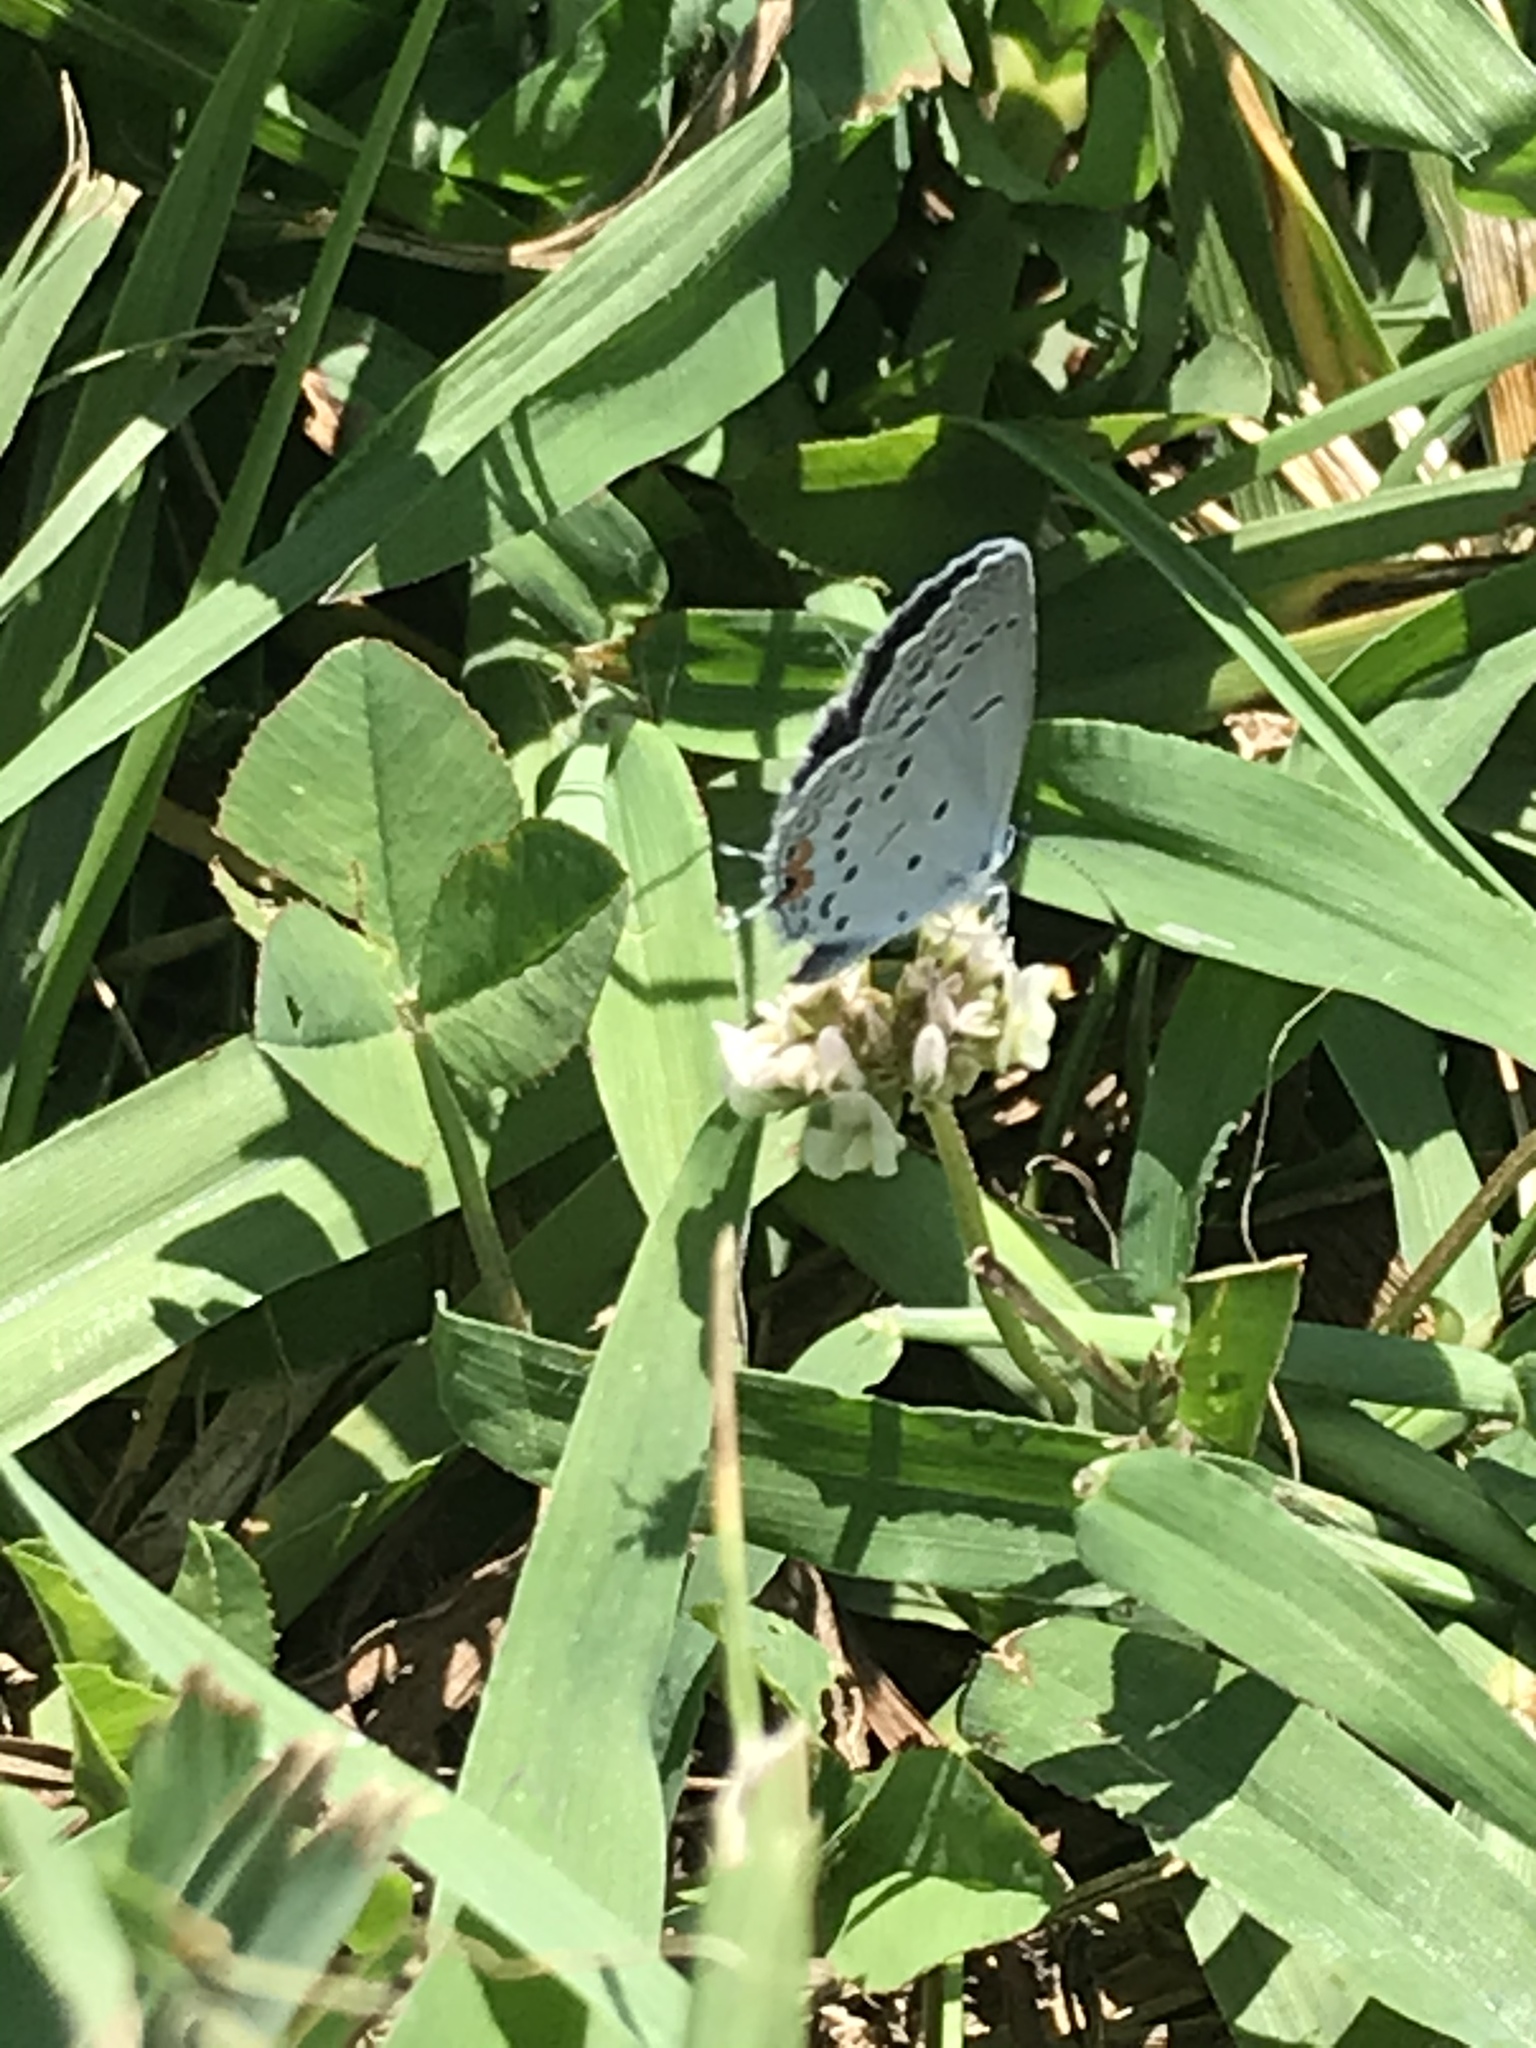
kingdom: Animalia
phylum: Arthropoda
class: Insecta
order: Lepidoptera
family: Lycaenidae
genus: Elkalyce
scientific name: Elkalyce comyntas
